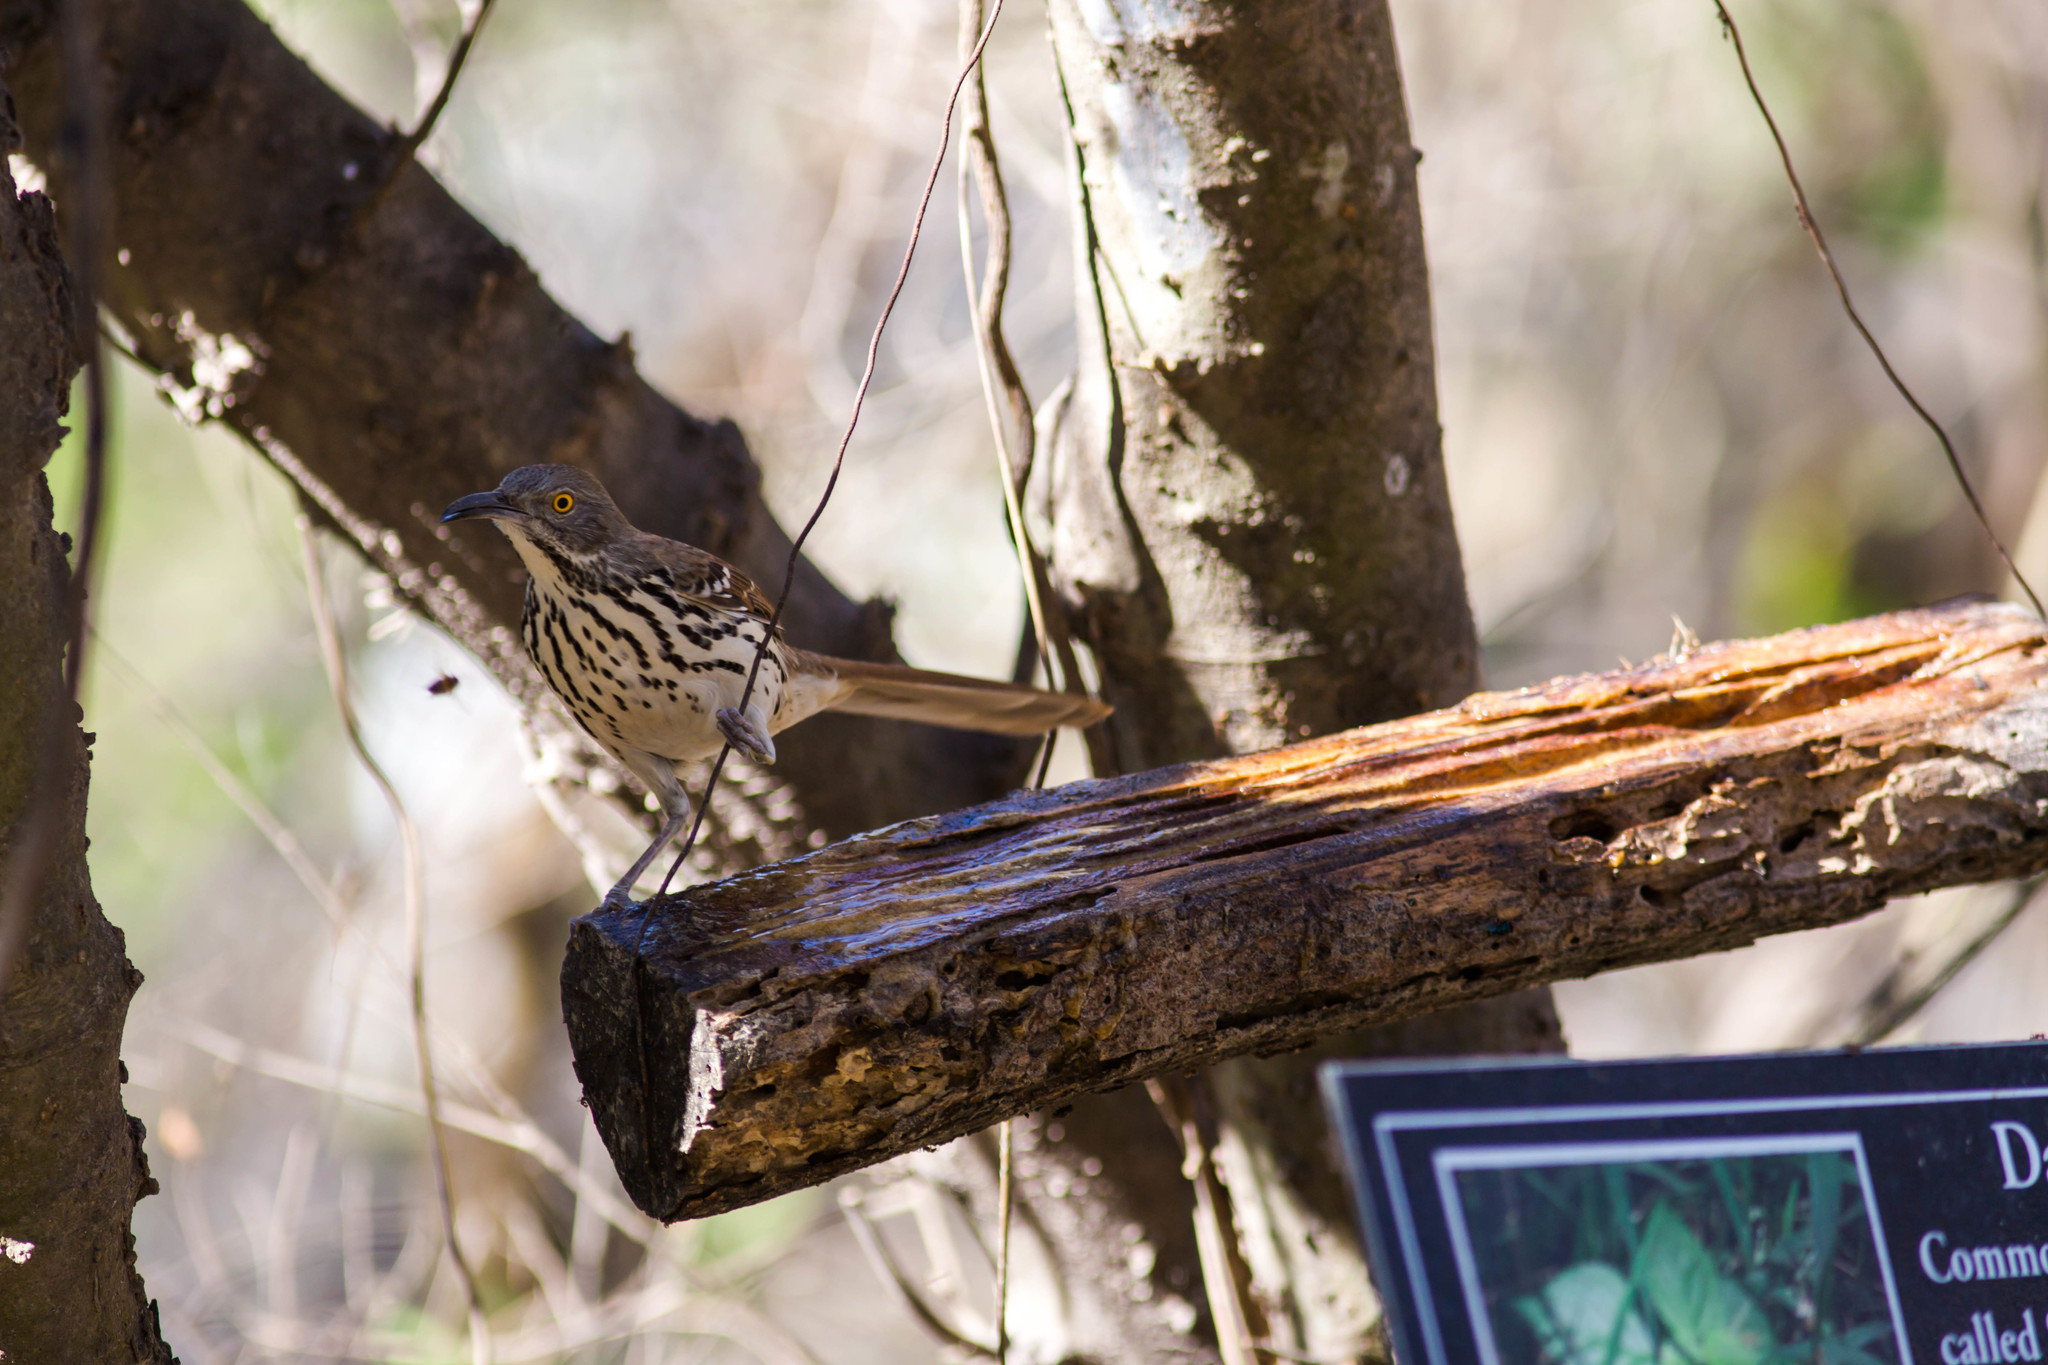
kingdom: Animalia
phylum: Chordata
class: Aves
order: Passeriformes
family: Mimidae
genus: Toxostoma
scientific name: Toxostoma longirostre
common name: Long-billed thrasher
